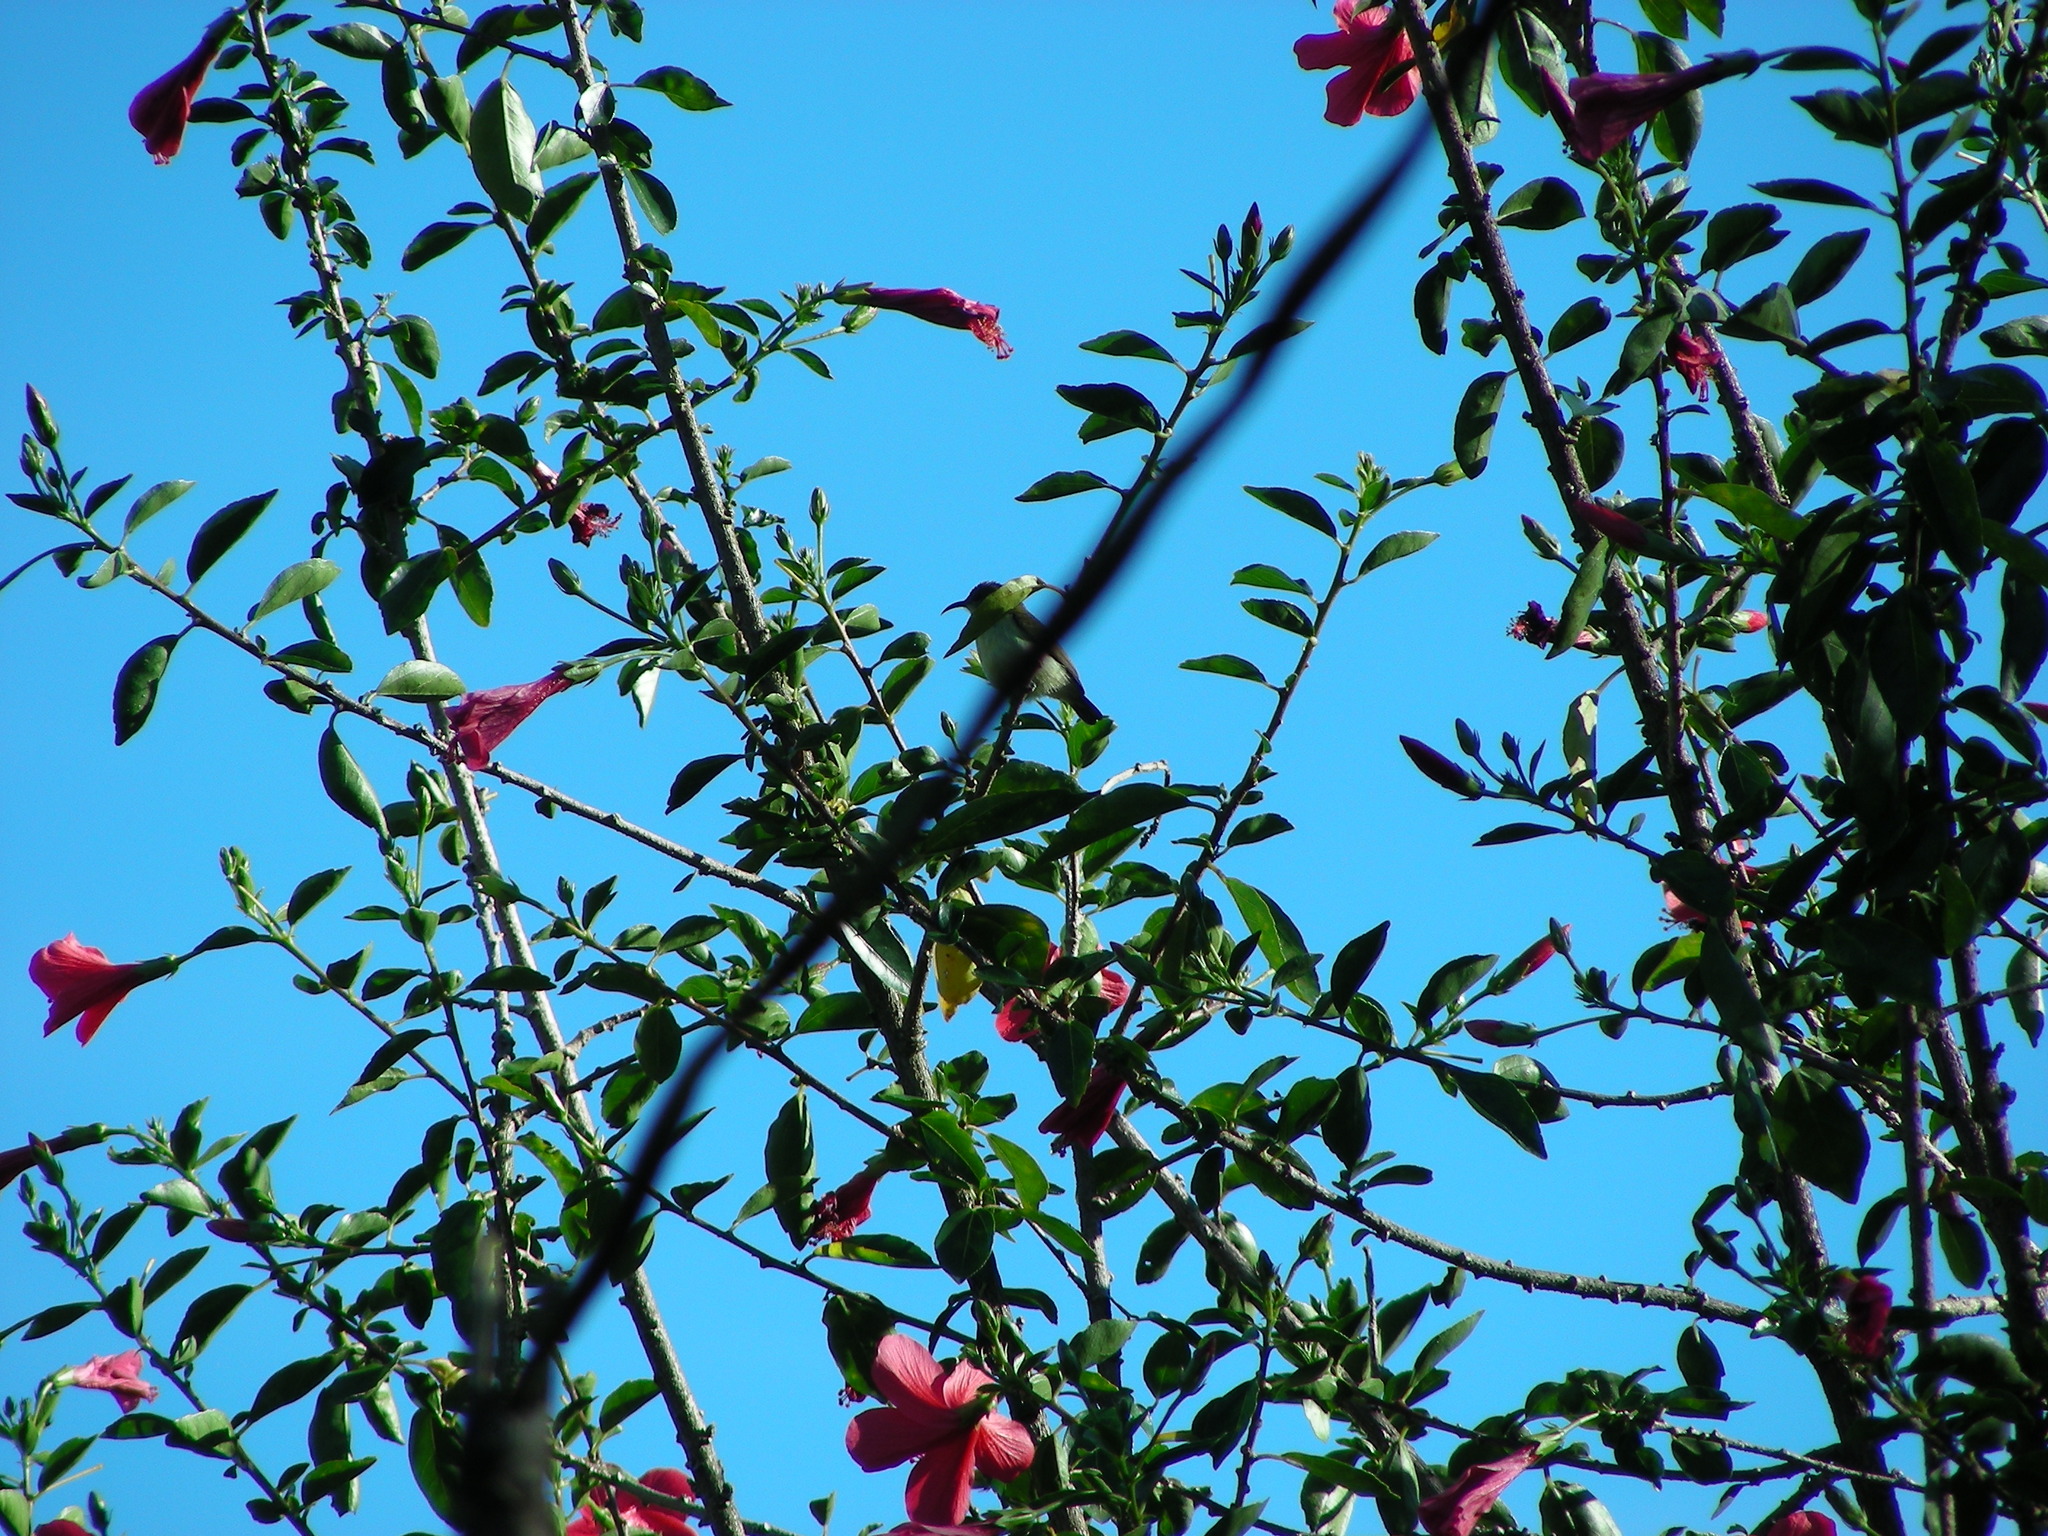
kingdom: Animalia
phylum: Chordata
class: Aves
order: Passeriformes
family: Nectariniidae
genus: Cinnyris
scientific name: Cinnyris asiaticus
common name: Purple sunbird
